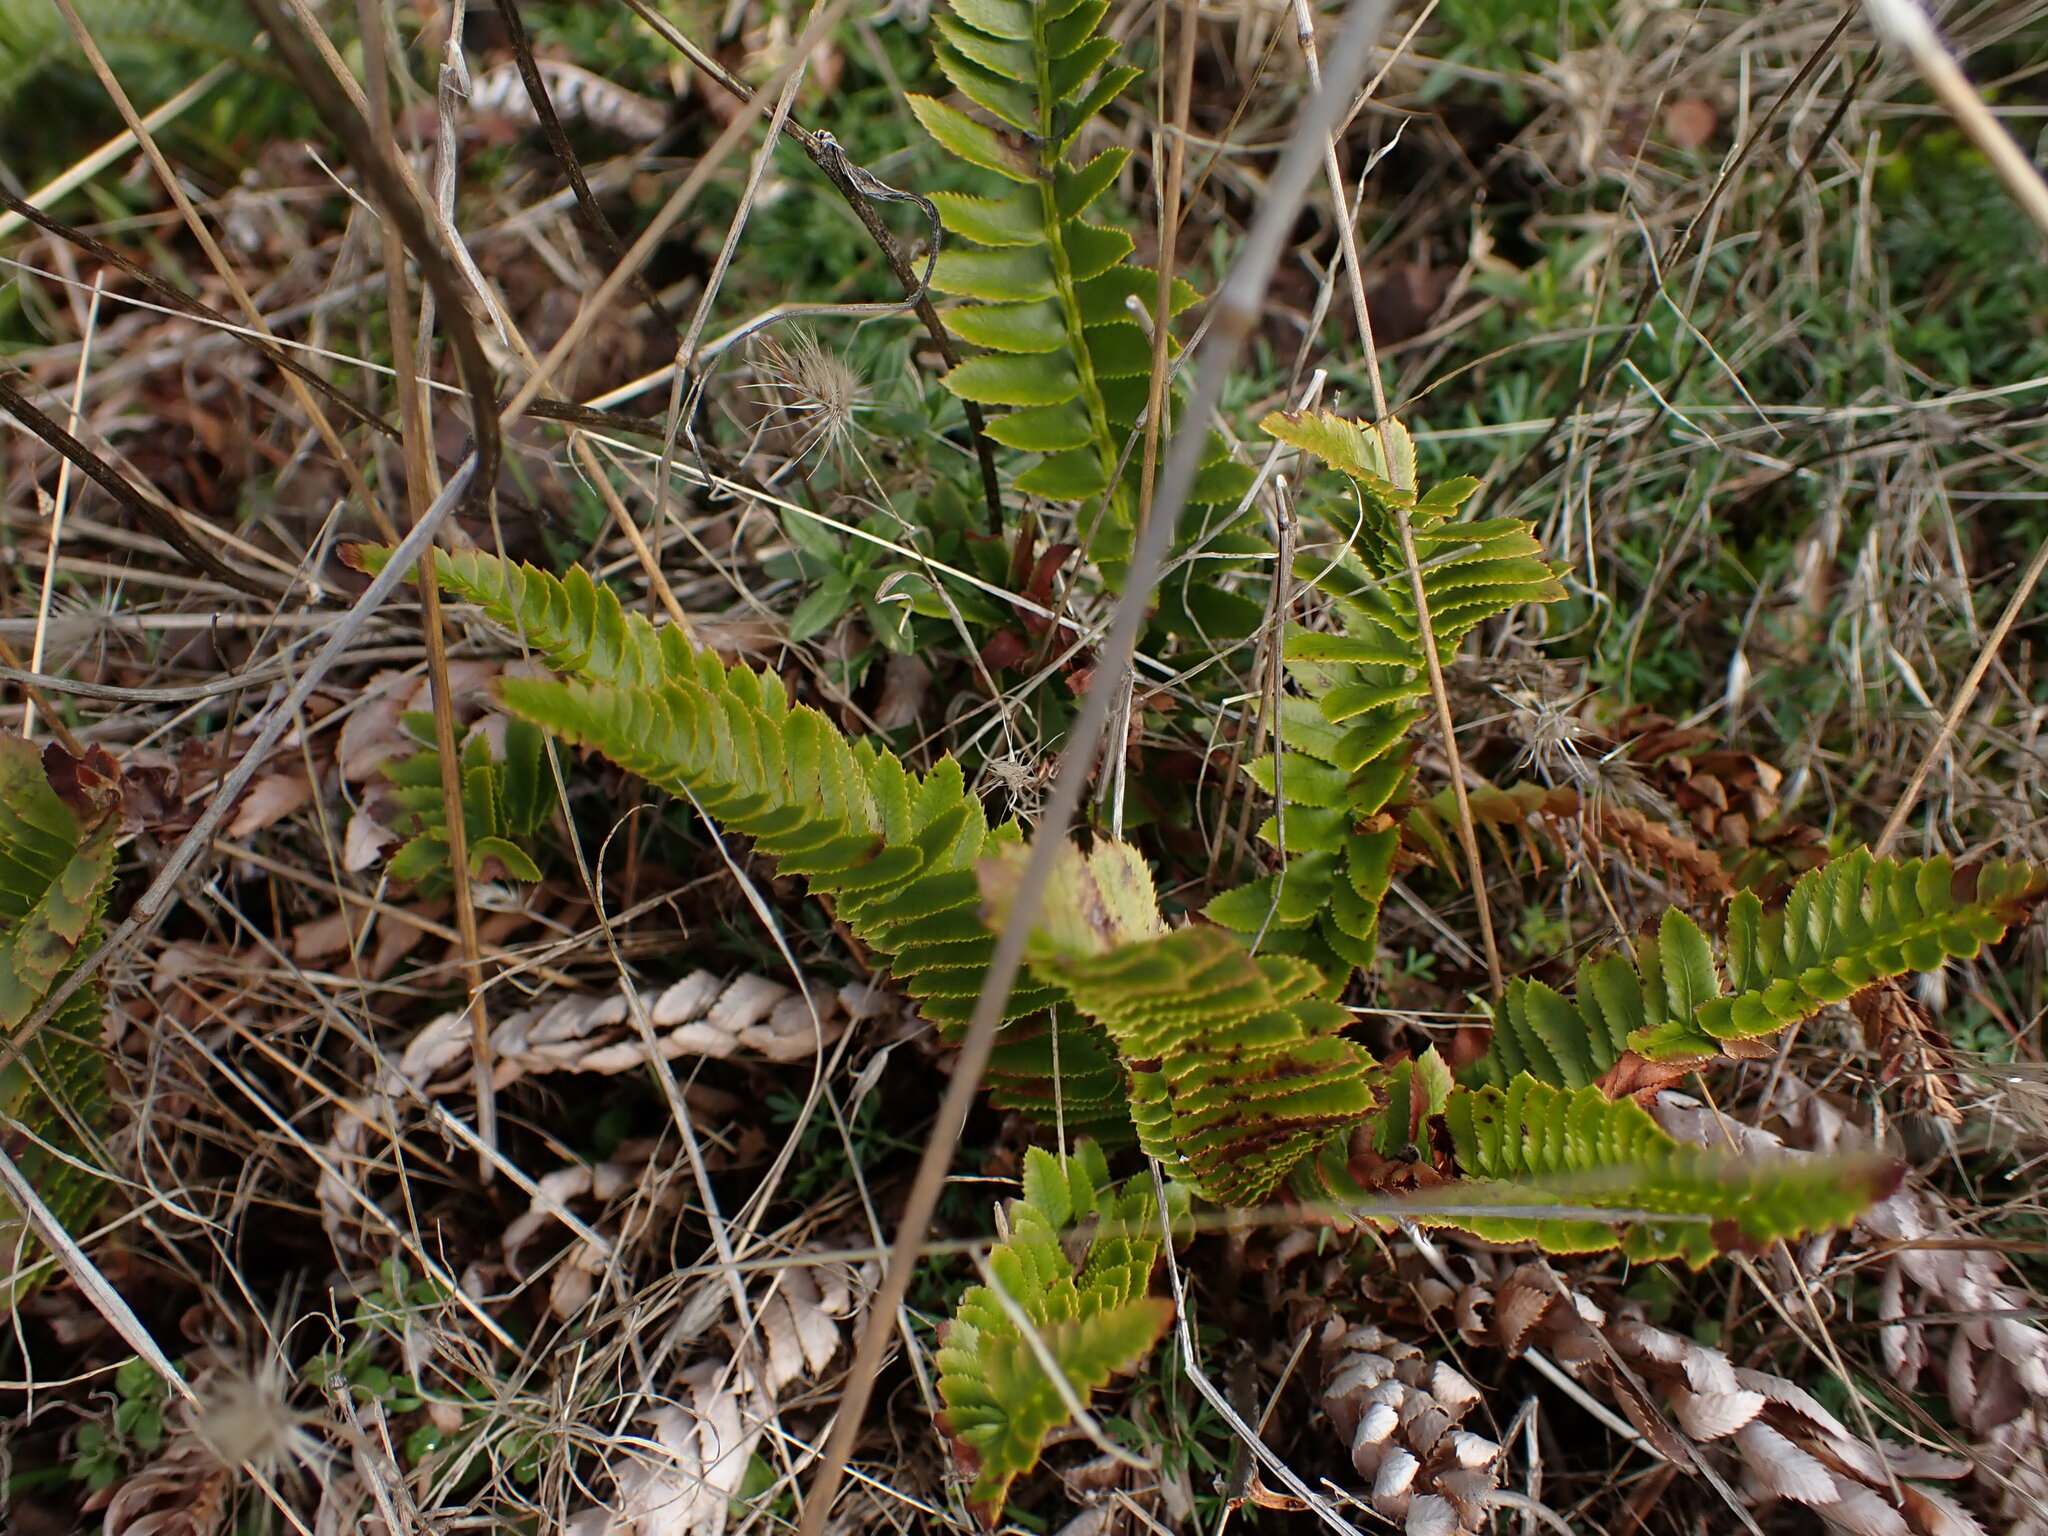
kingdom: Plantae
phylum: Tracheophyta
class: Polypodiopsida
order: Polypodiales
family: Dryopteridaceae
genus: Polystichum
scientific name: Polystichum imbricans
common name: Dwarf western sword fern
